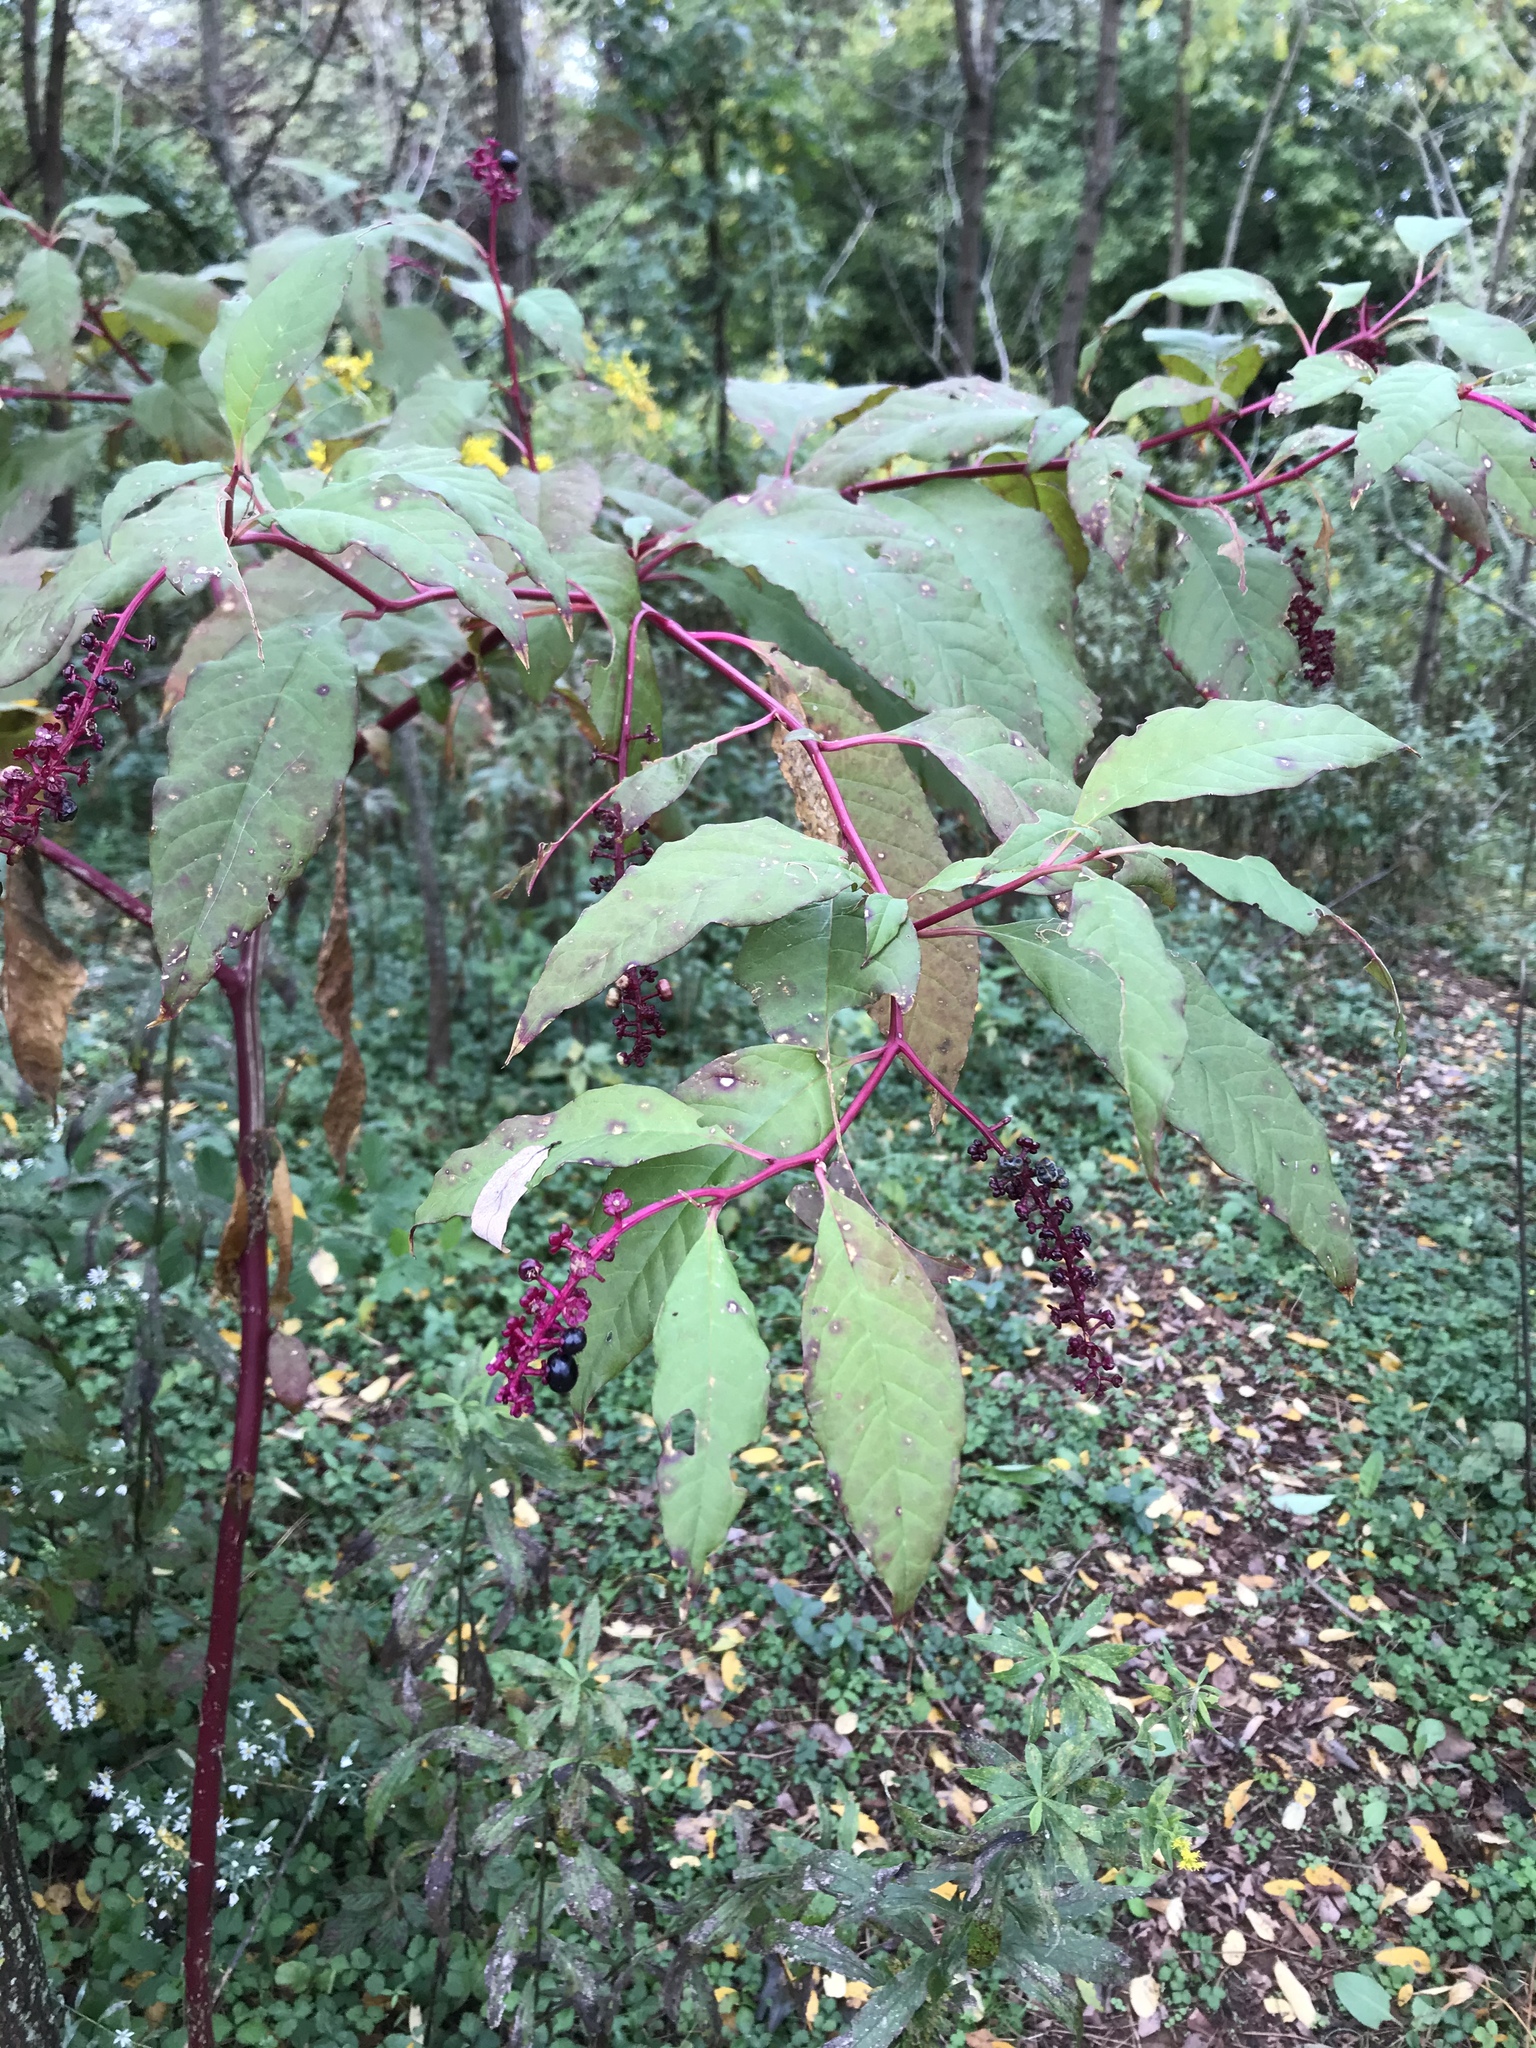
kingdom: Plantae
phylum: Tracheophyta
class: Magnoliopsida
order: Caryophyllales
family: Phytolaccaceae
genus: Phytolacca
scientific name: Phytolacca americana
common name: American pokeweed
